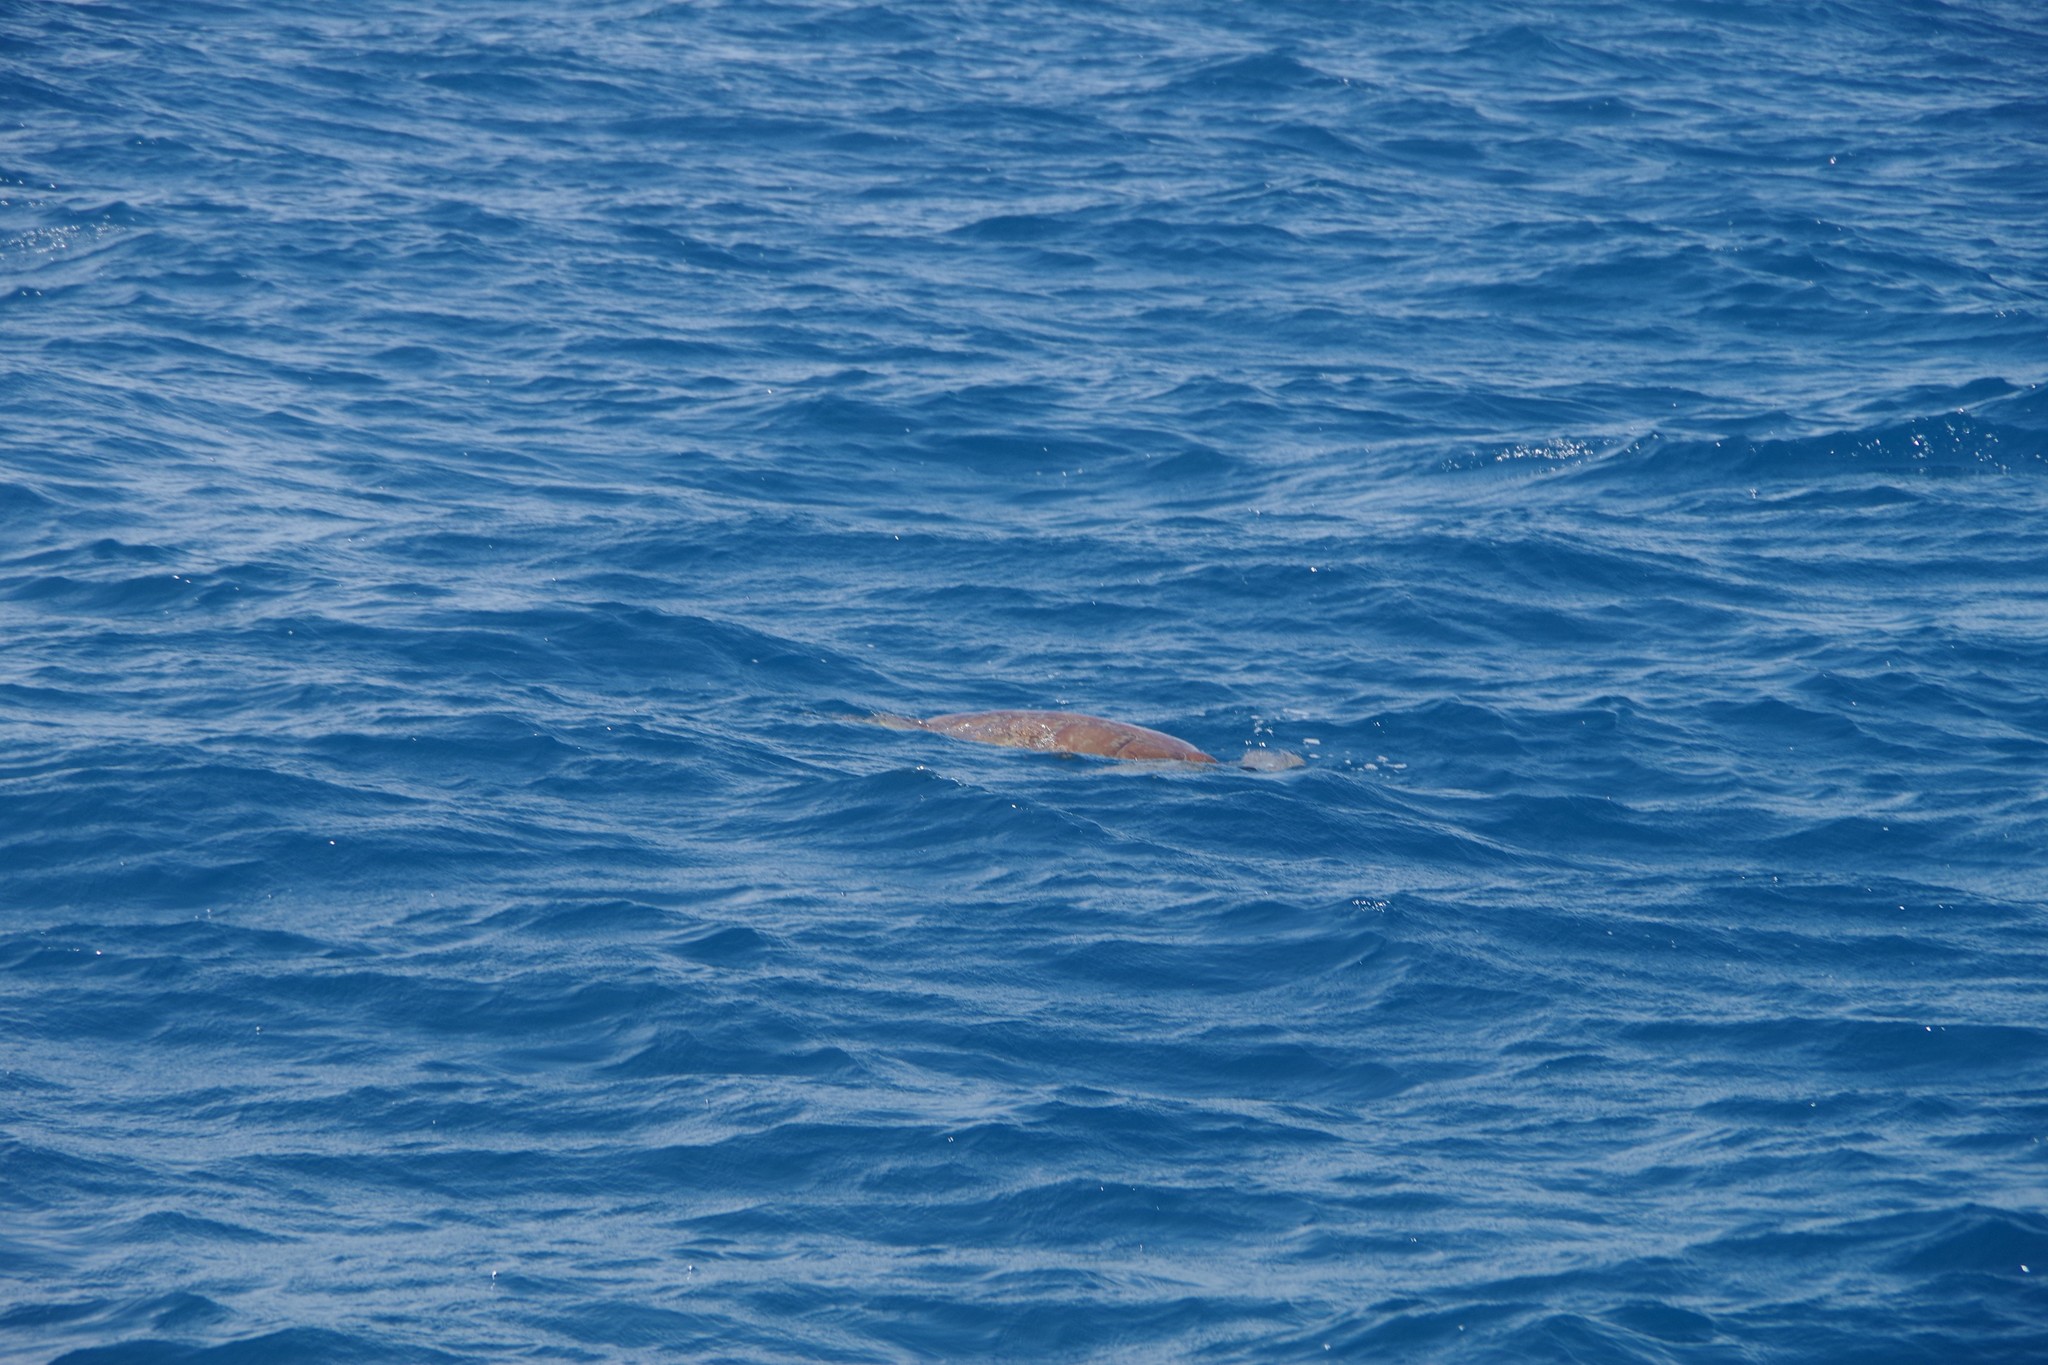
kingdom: Animalia
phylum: Chordata
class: Testudines
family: Cheloniidae
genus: Chelonia
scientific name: Chelonia mydas
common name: Green turtle
